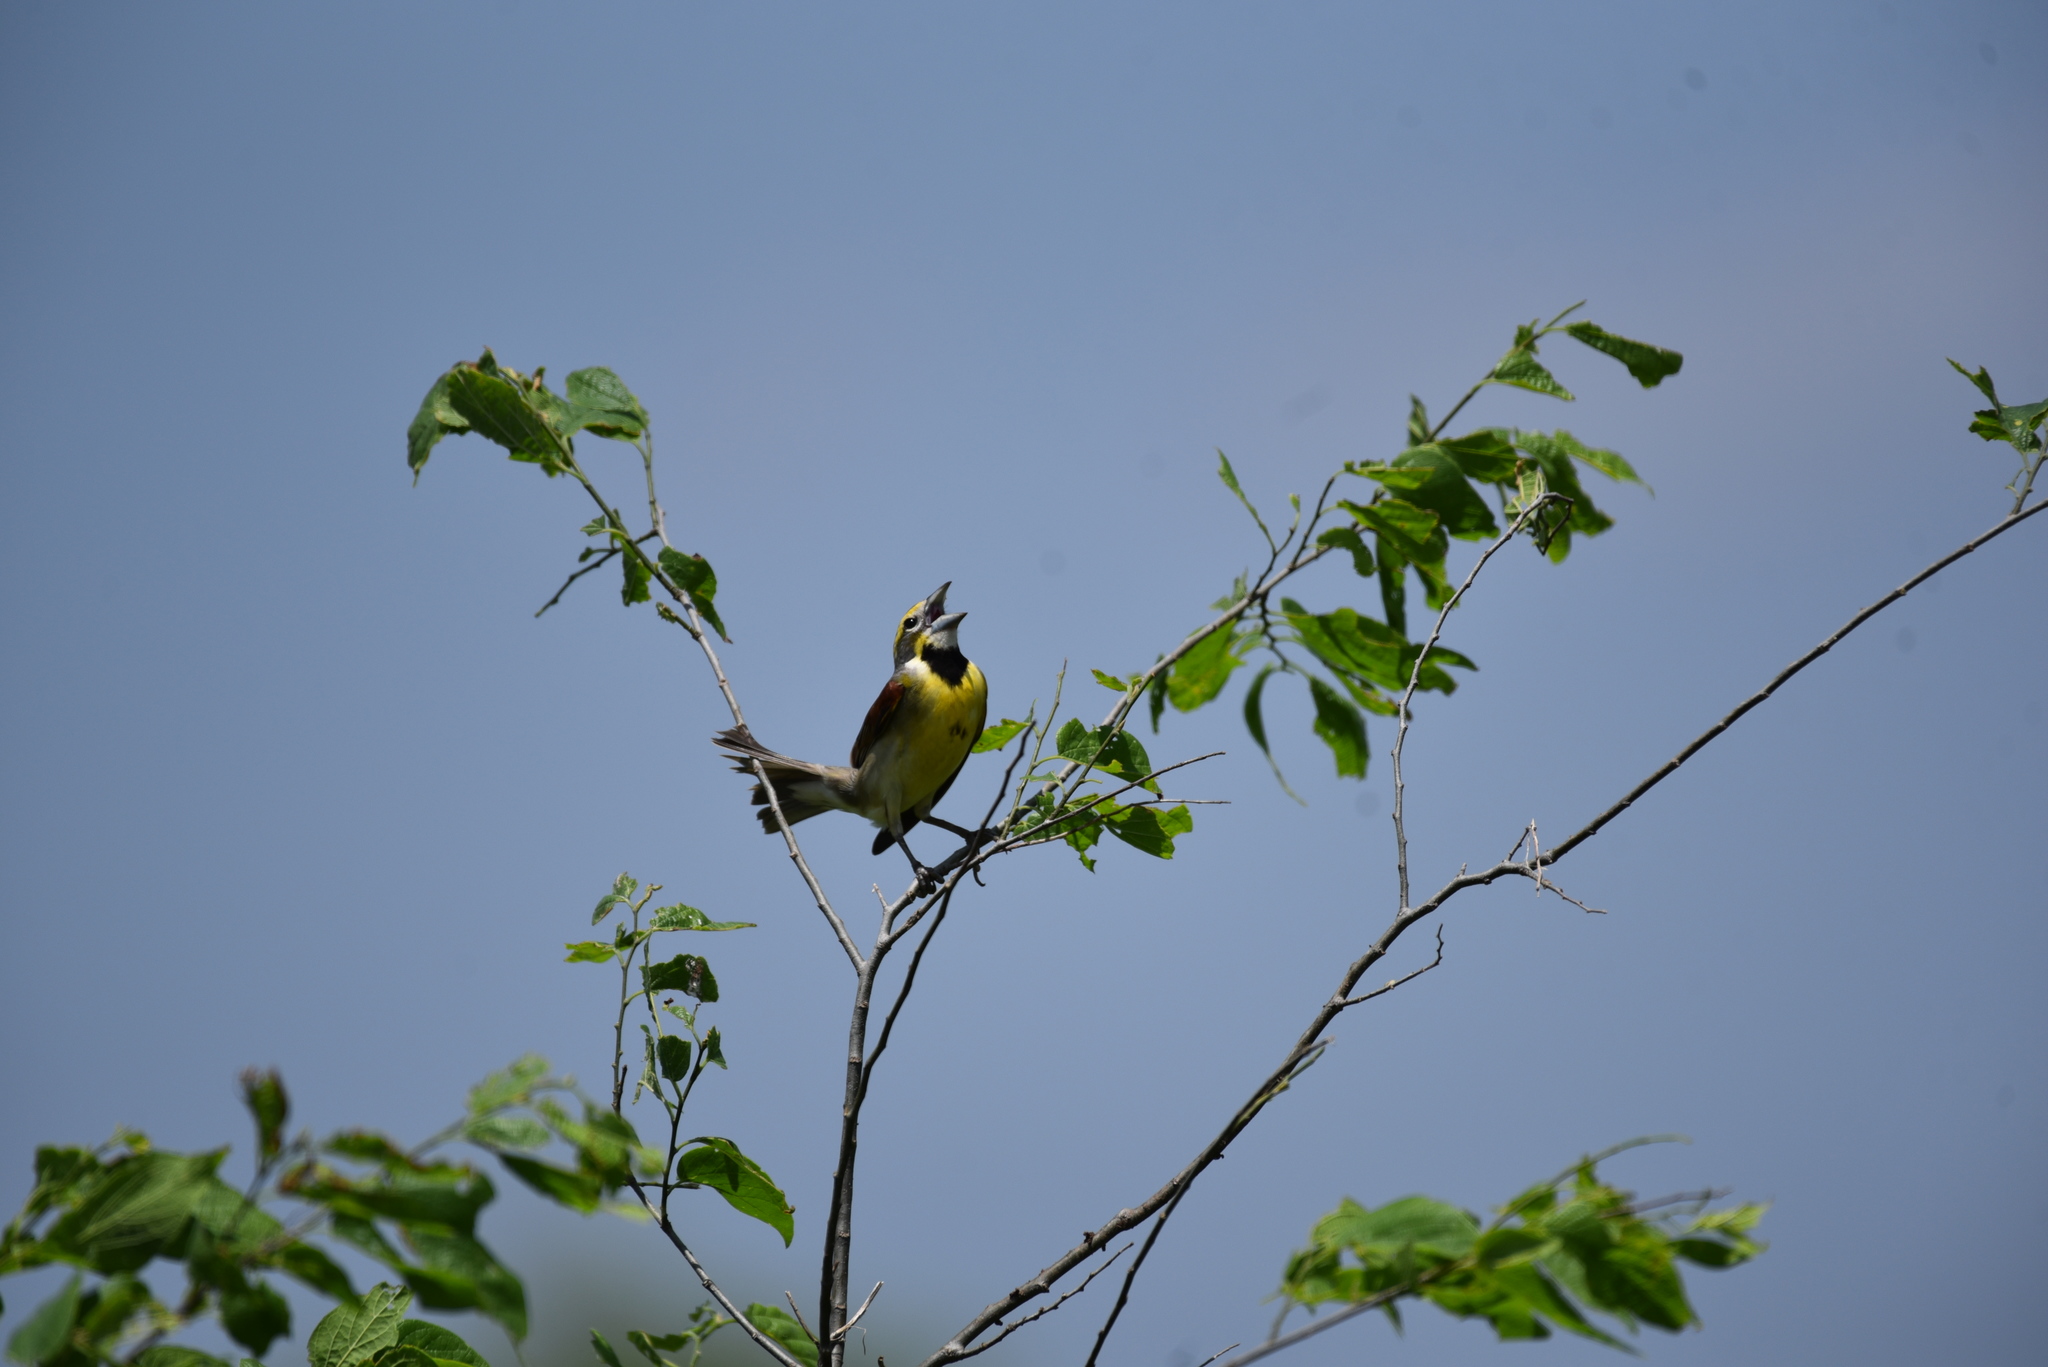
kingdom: Animalia
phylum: Chordata
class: Aves
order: Passeriformes
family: Cardinalidae
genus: Spiza
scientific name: Spiza americana
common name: Dickcissel
